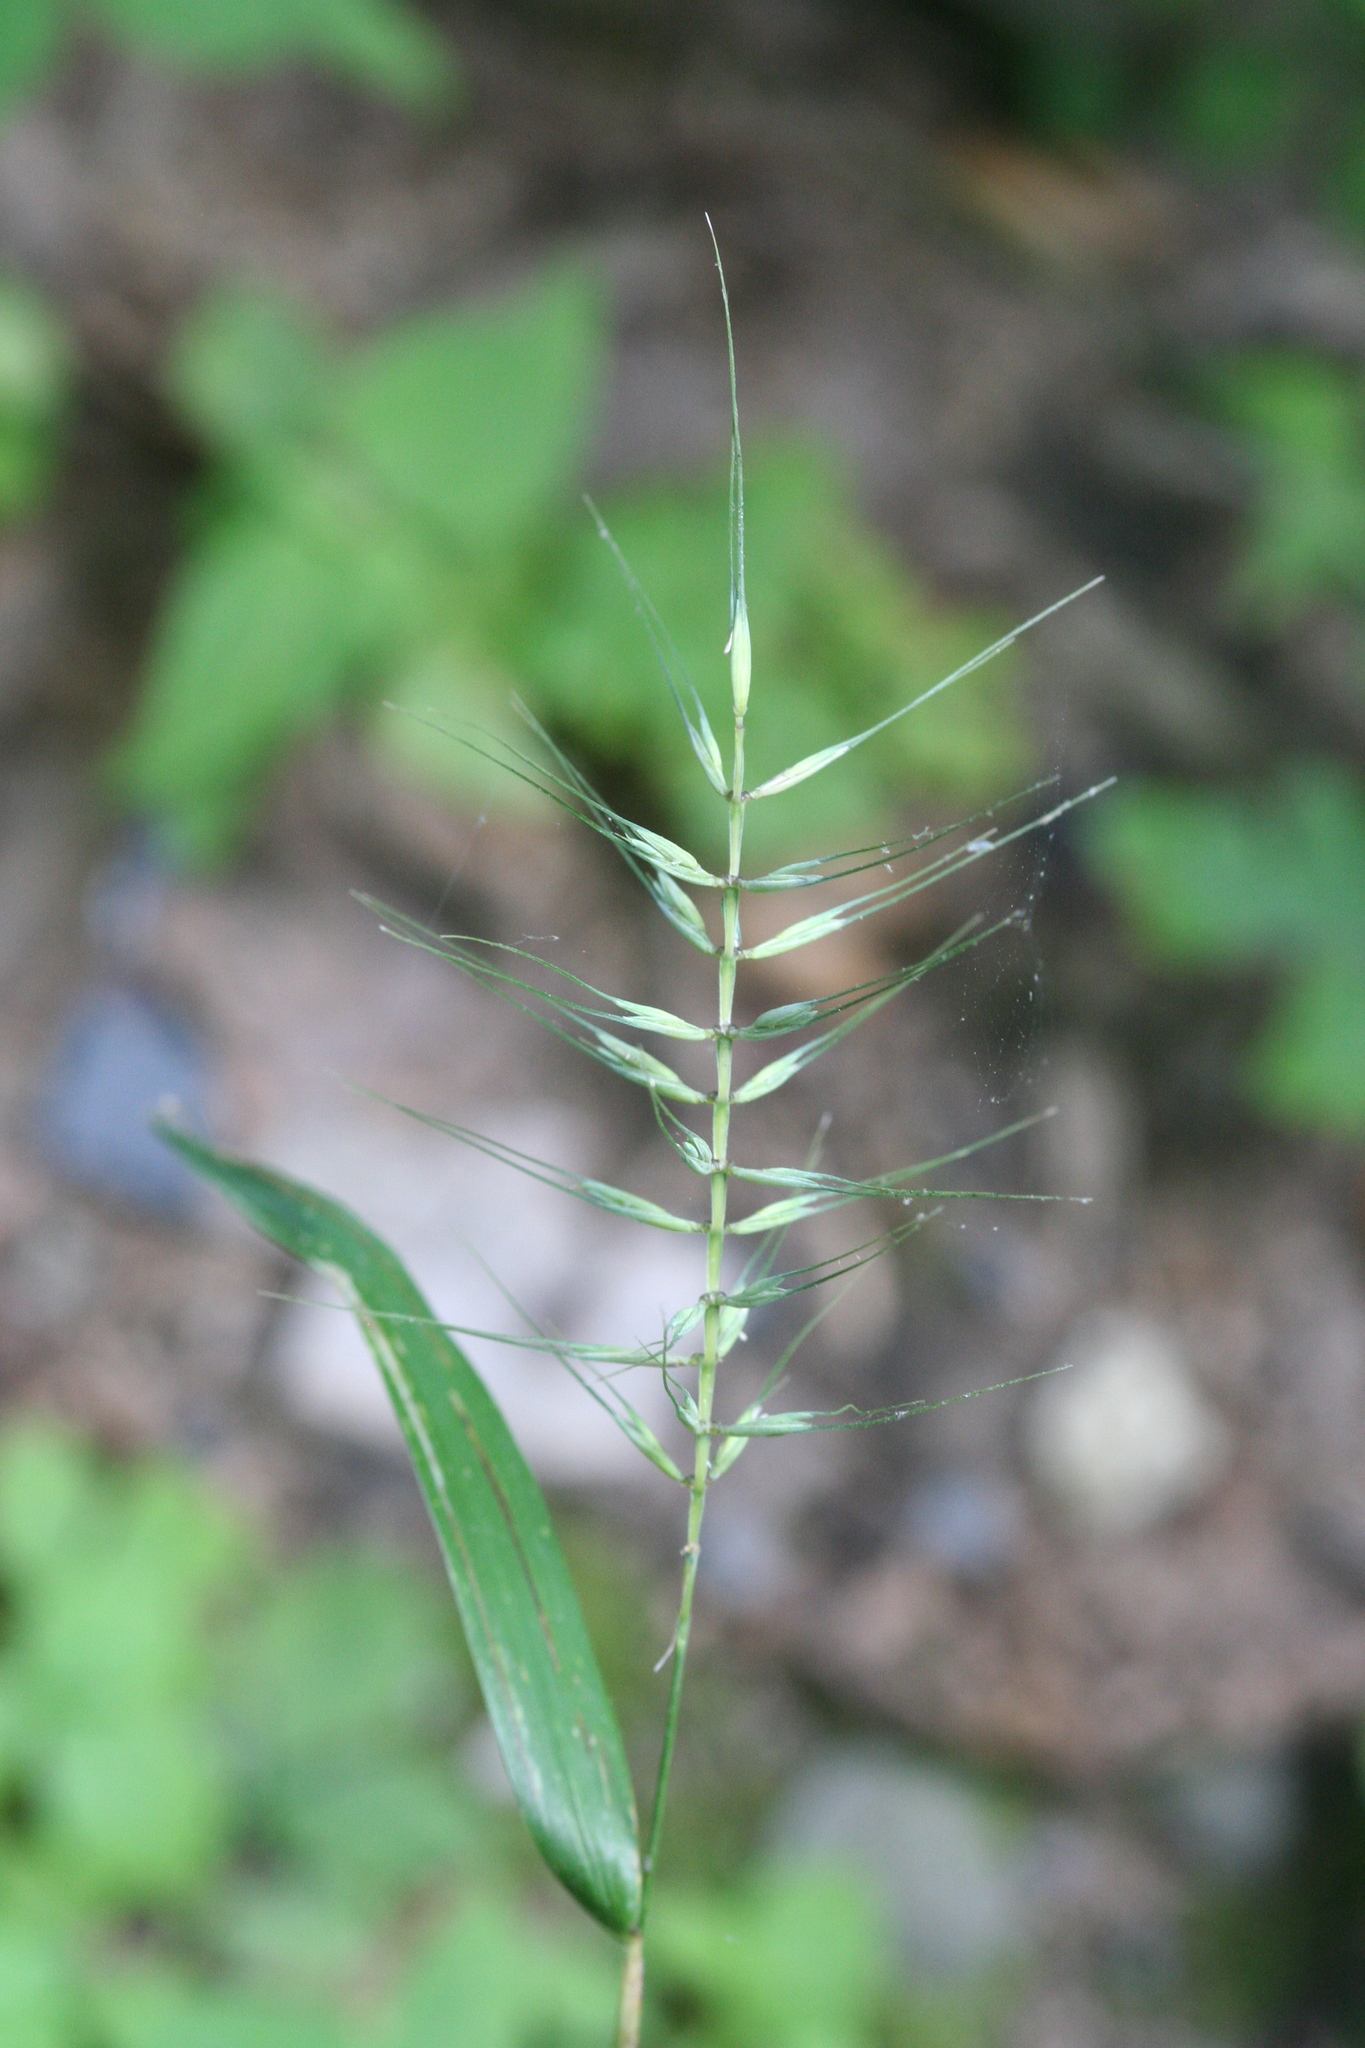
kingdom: Plantae
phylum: Tracheophyta
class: Liliopsida
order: Poales
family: Poaceae
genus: Elymus
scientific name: Elymus hystrix
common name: Bottlebrush grass
